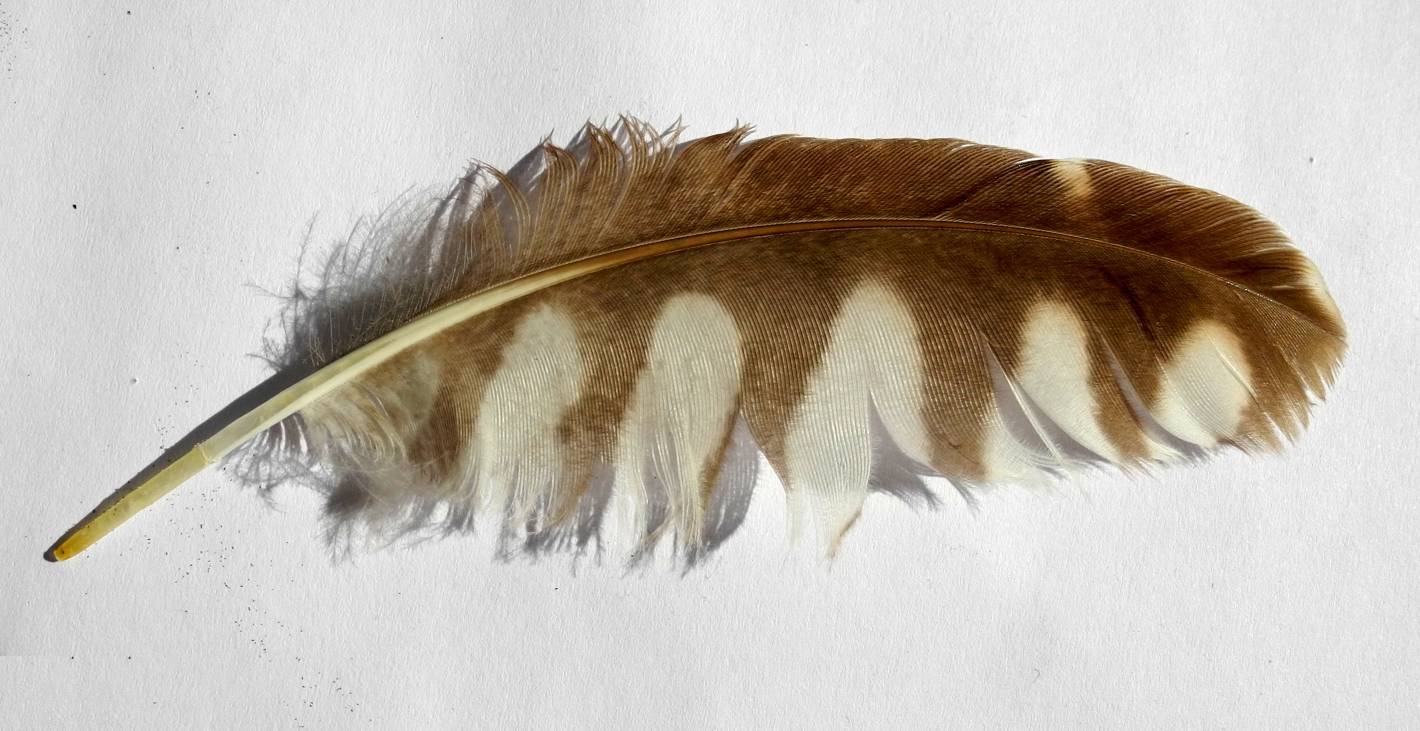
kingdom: Animalia
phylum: Chordata
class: Aves
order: Strigiformes
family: Strigidae
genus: Athene
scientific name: Athene noctua
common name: Little owl
